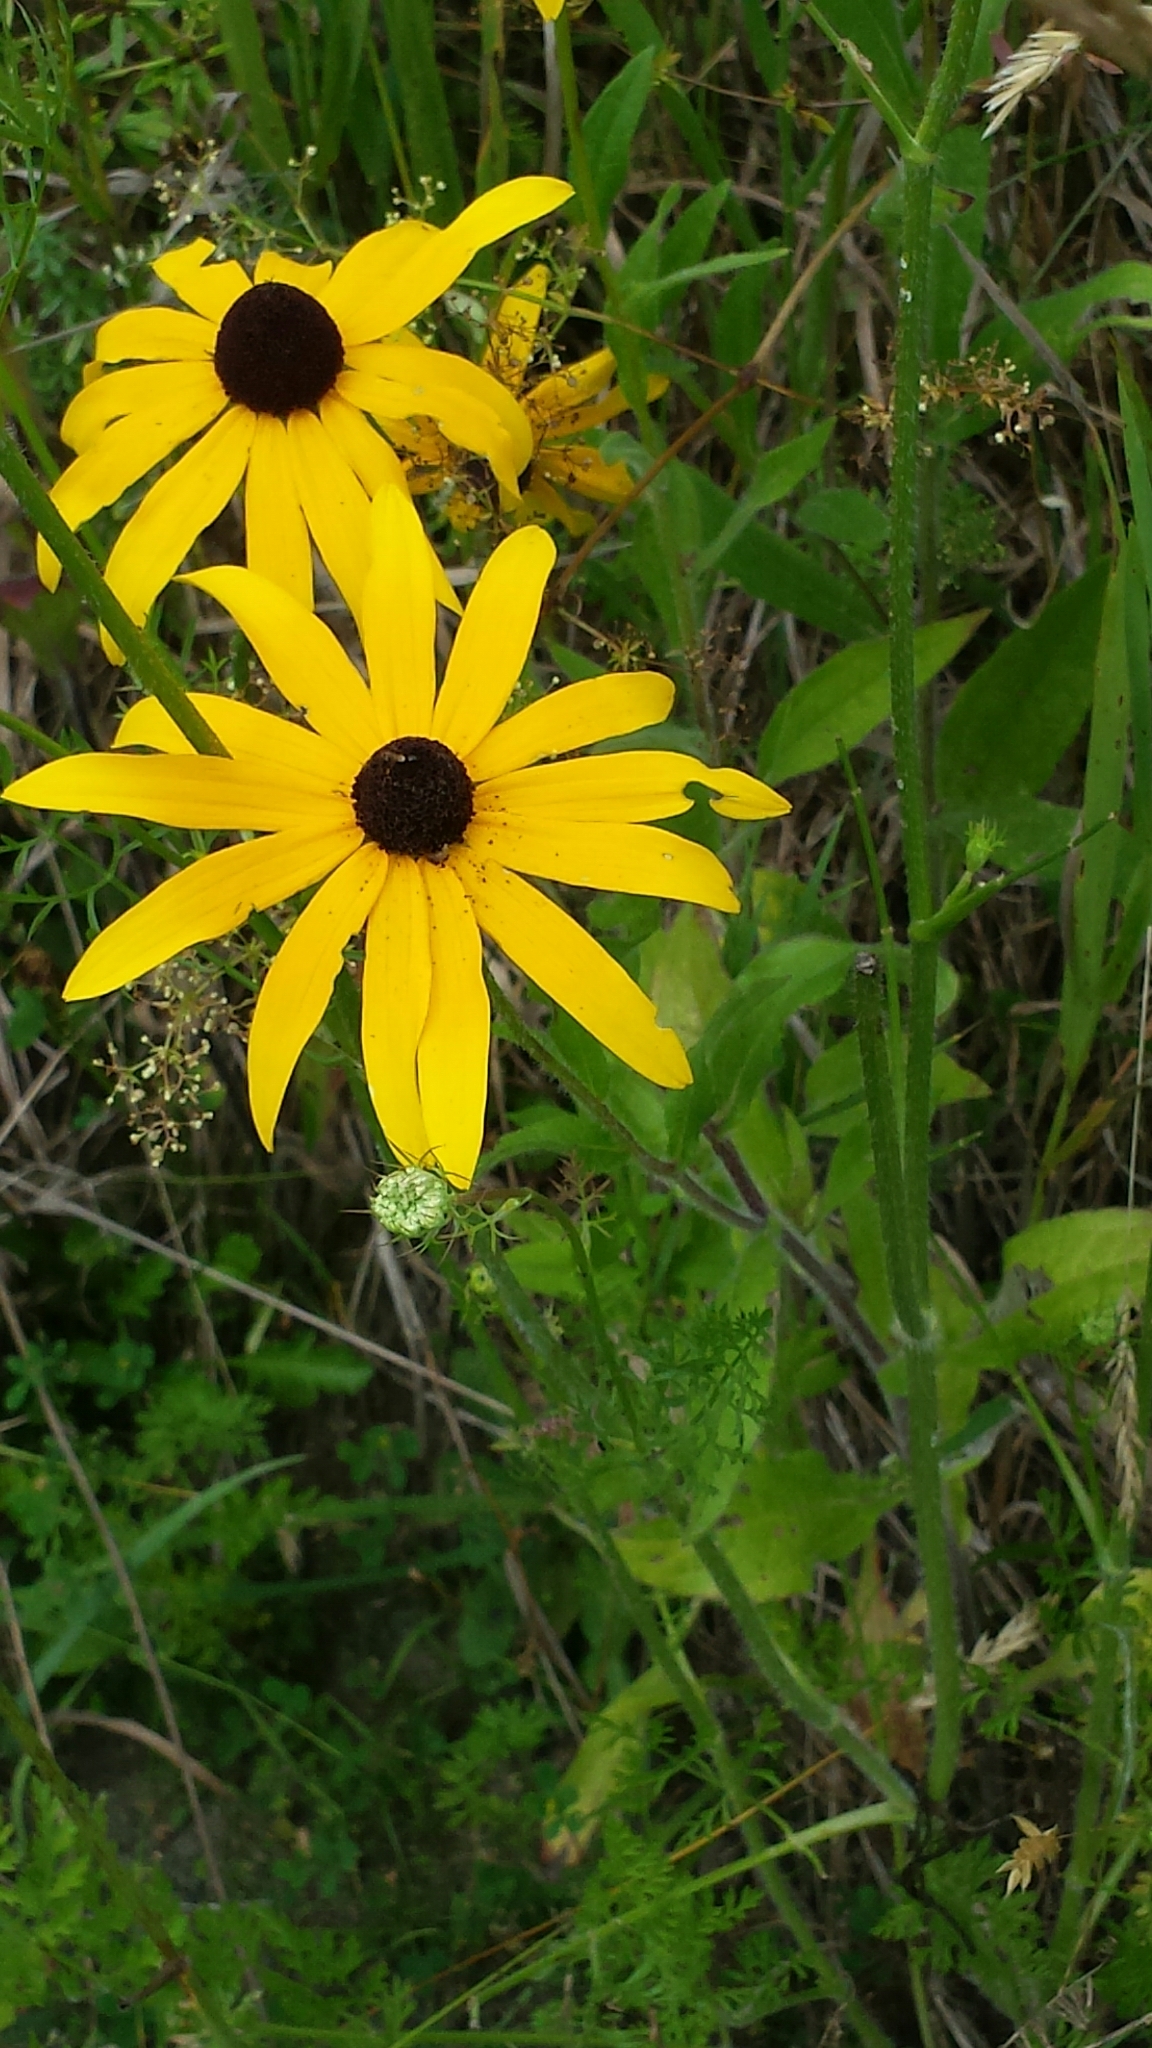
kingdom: Plantae
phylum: Tracheophyta
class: Magnoliopsida
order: Asterales
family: Asteraceae
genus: Rudbeckia
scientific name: Rudbeckia hirta
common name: Black-eyed-susan
